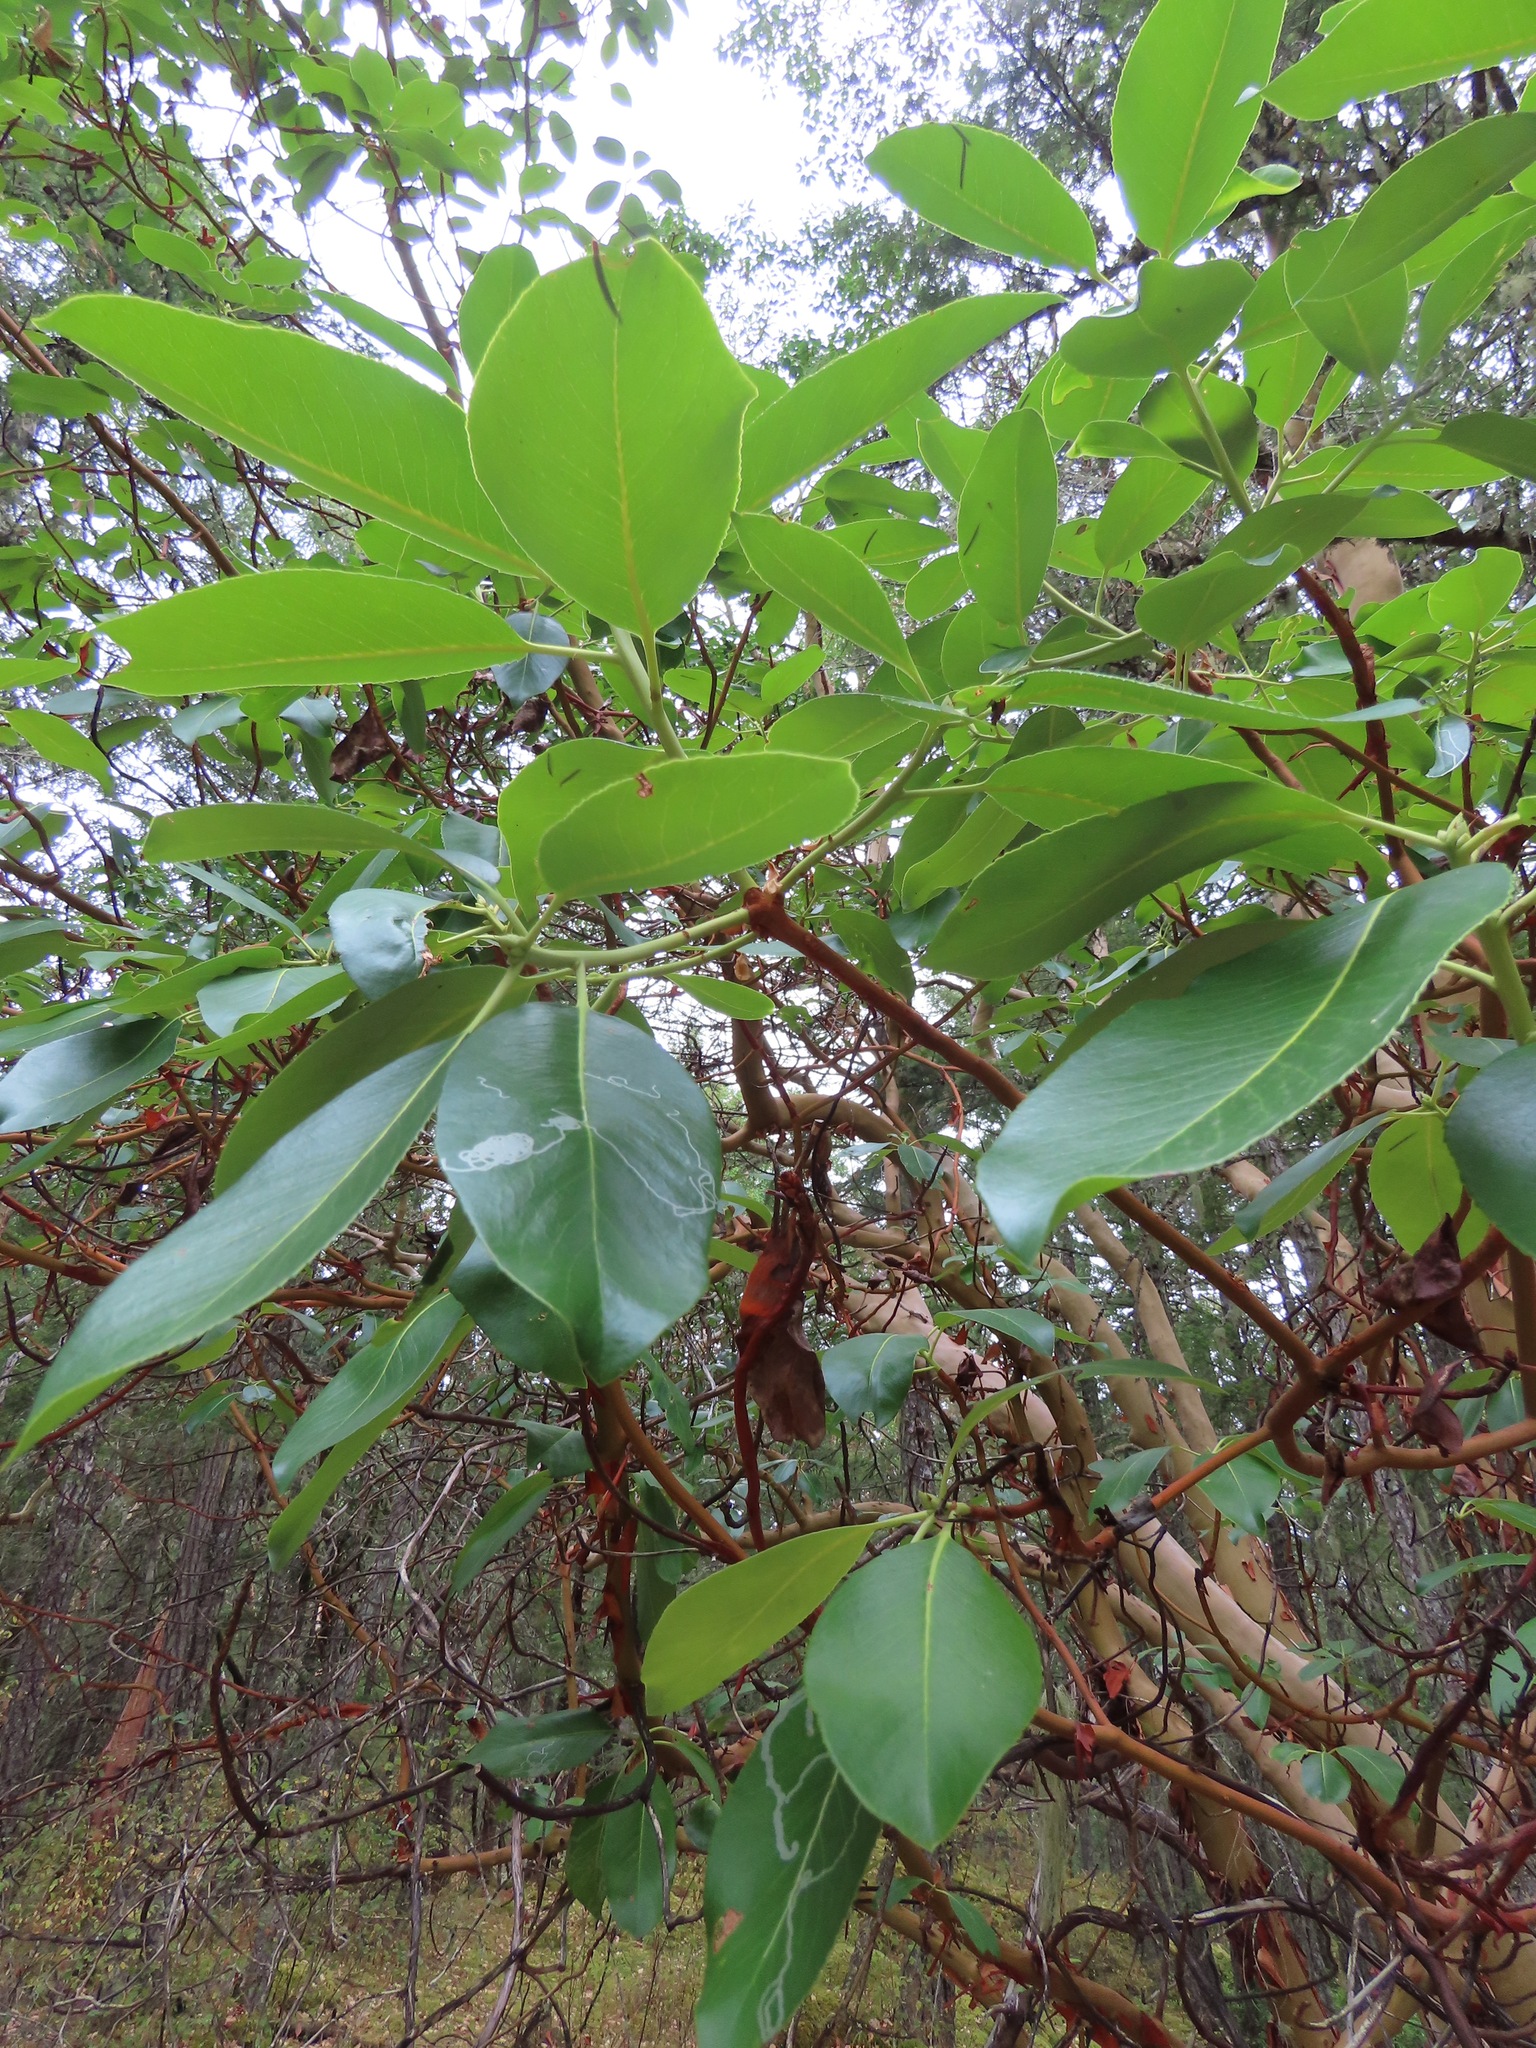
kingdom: Plantae
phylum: Tracheophyta
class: Magnoliopsida
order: Ericales
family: Ericaceae
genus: Arbutus
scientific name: Arbutus menziesii
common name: Pacific madrone
